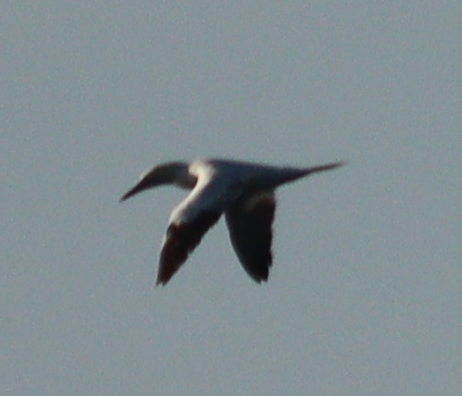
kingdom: Animalia
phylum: Chordata
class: Aves
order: Suliformes
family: Sulidae
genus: Morus
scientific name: Morus bassanus
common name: Northern gannet
